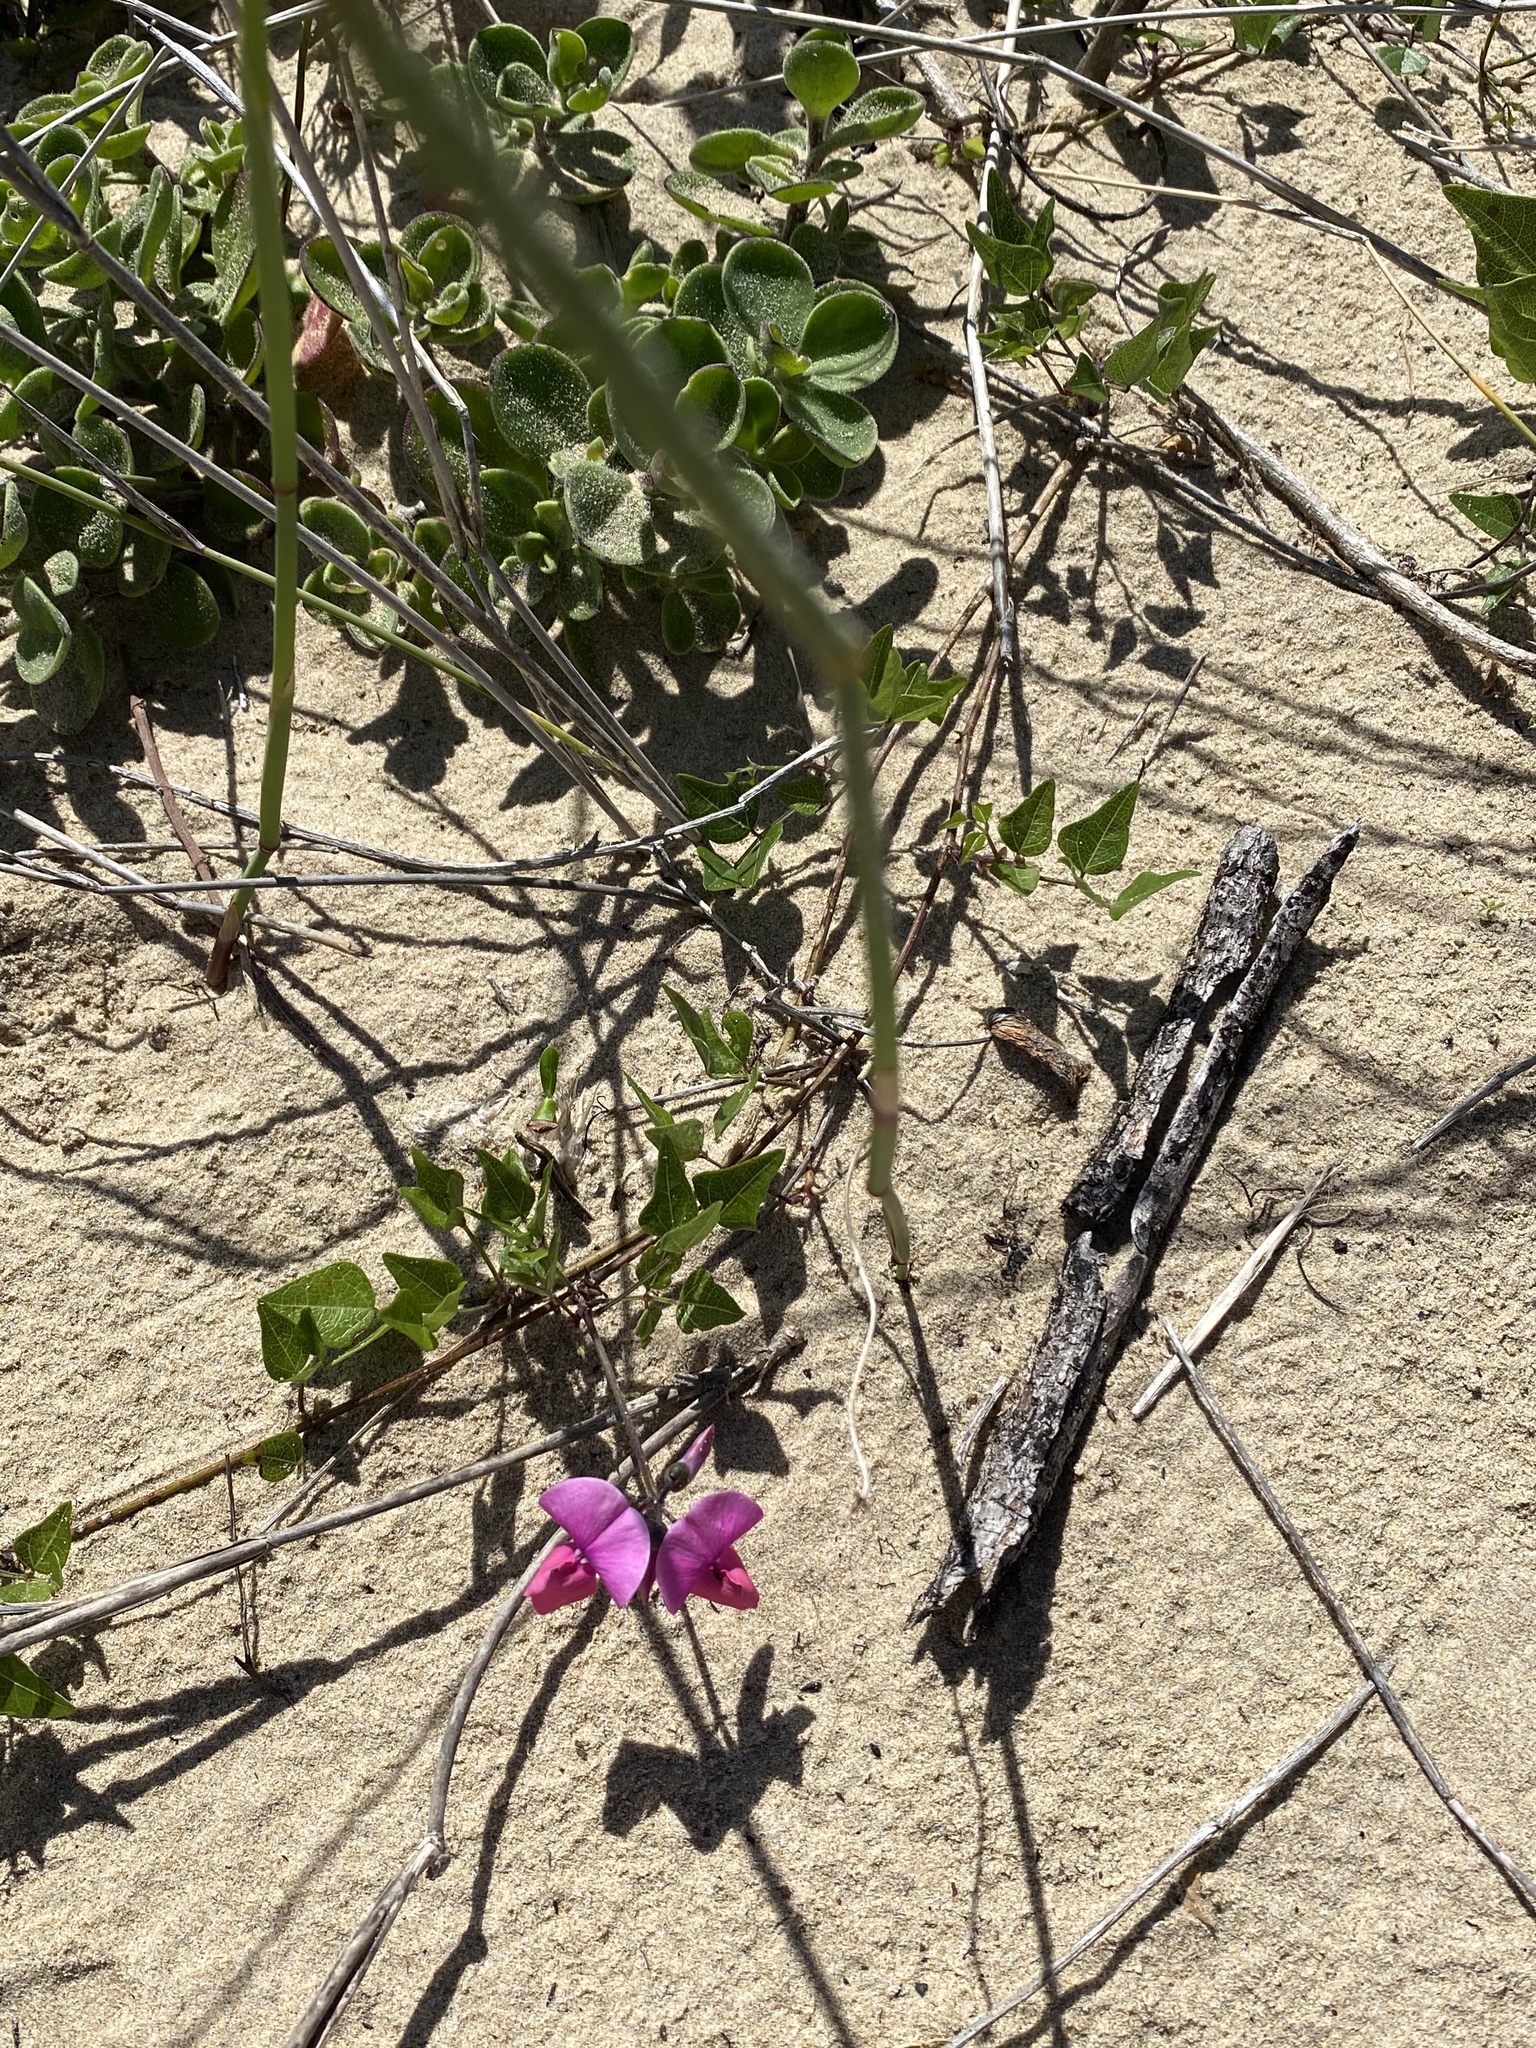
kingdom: Plantae
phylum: Tracheophyta
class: Magnoliopsida
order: Fabales
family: Fabaceae
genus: Dipogon
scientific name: Dipogon lignosus
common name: Okie bean
